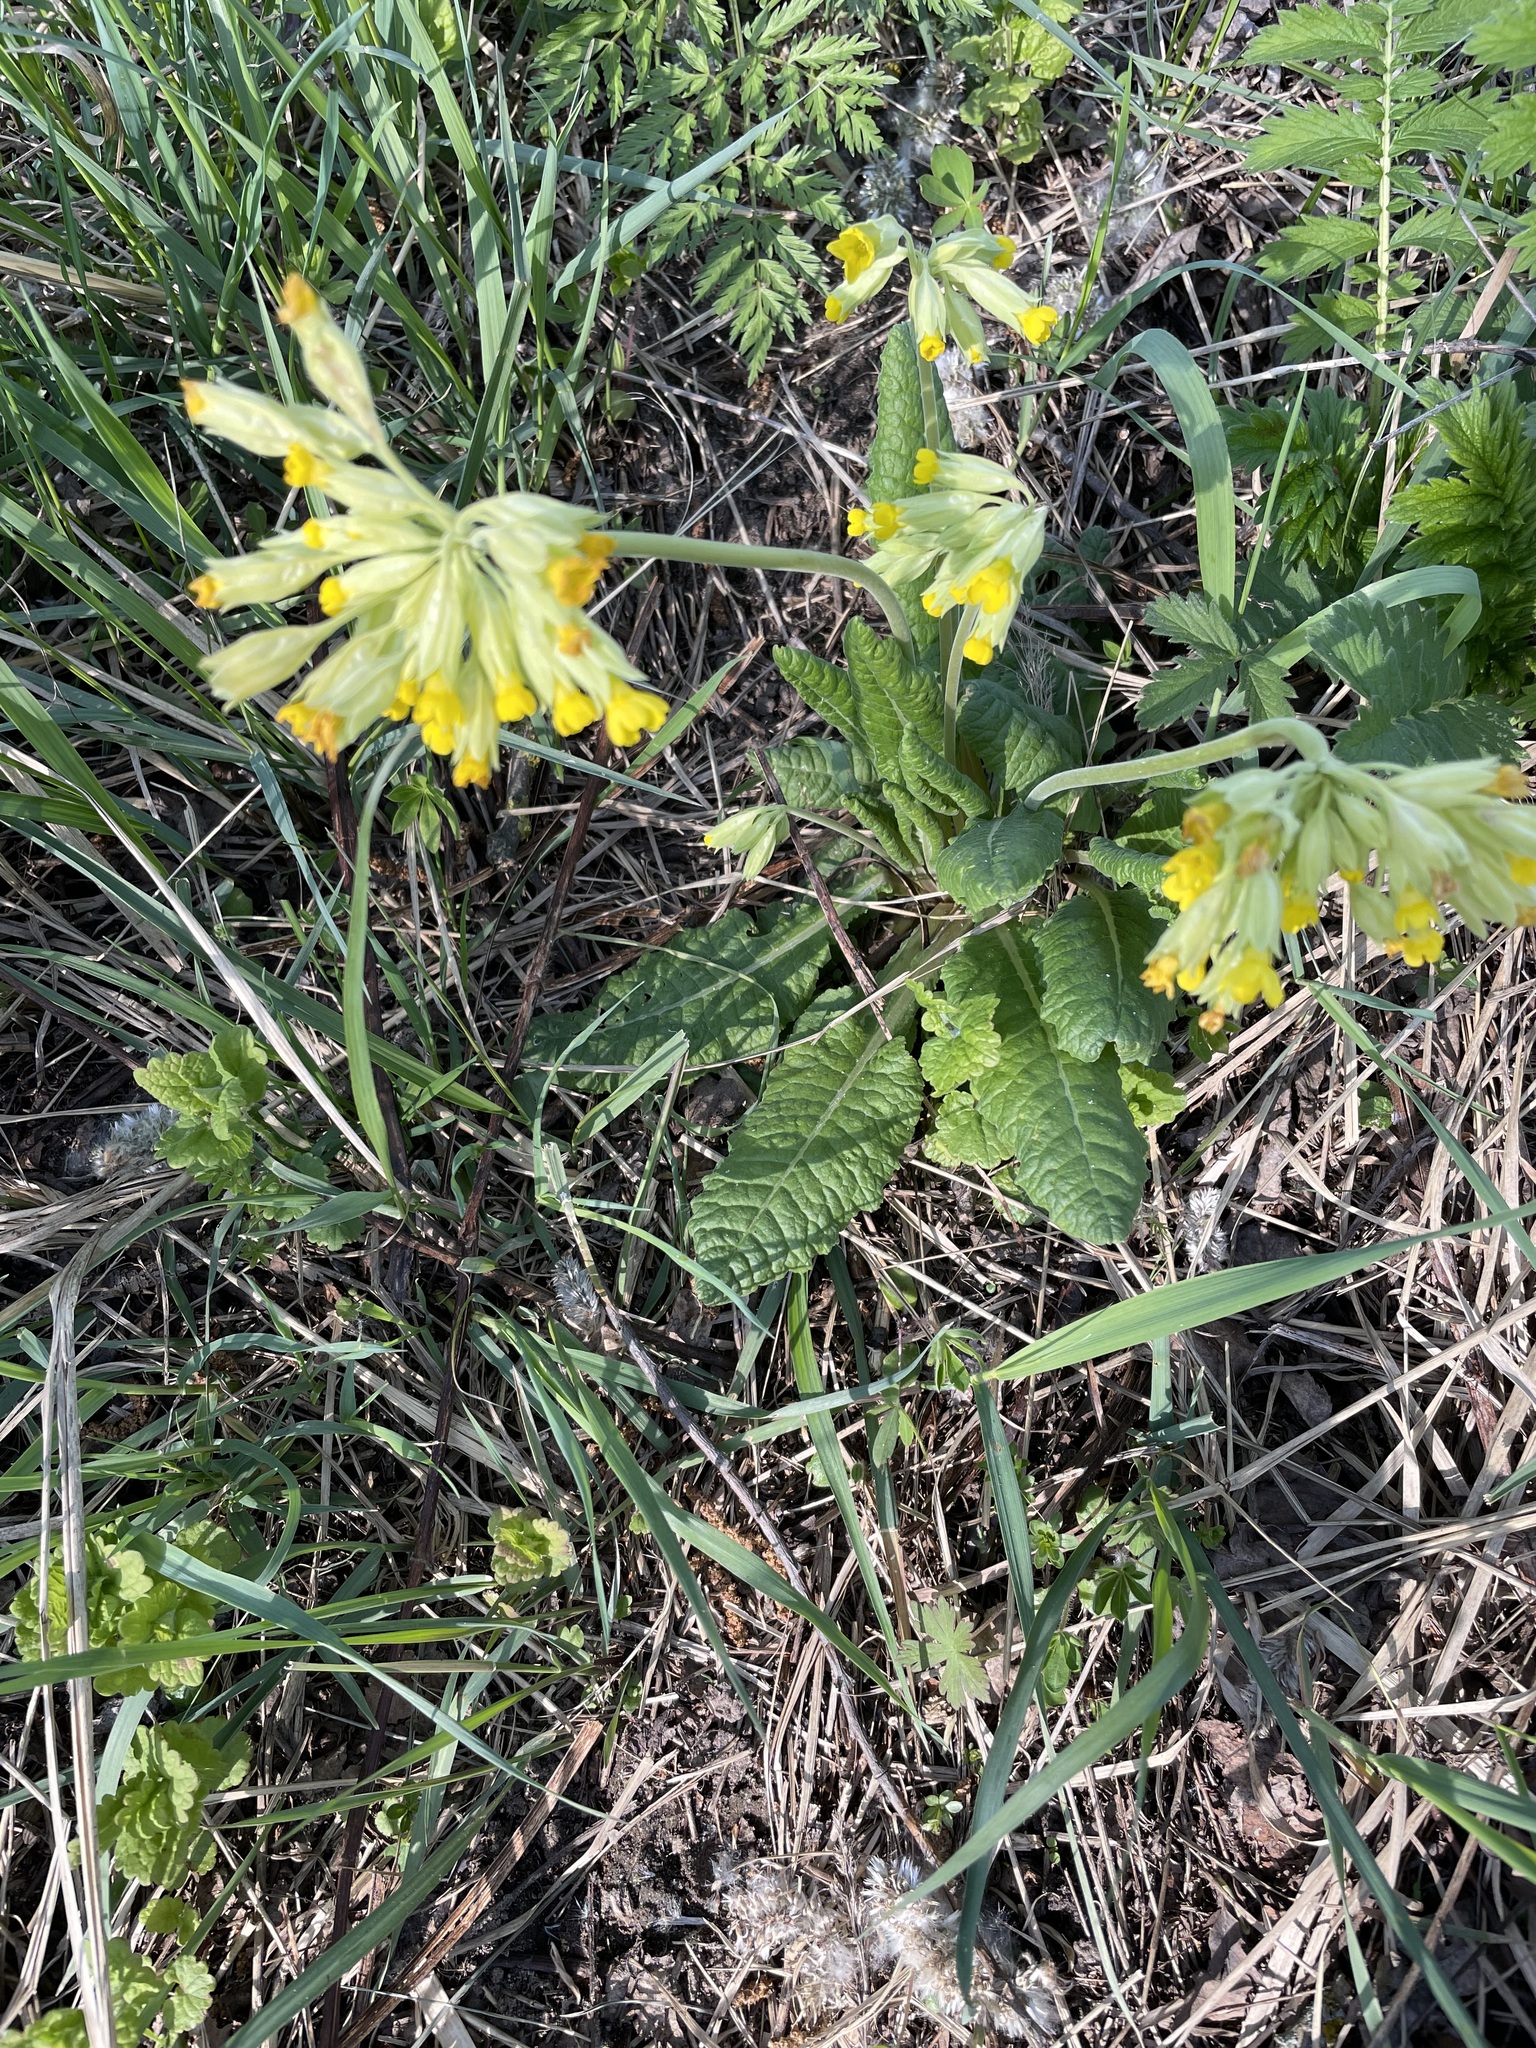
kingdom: Plantae
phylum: Tracheophyta
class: Magnoliopsida
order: Ericales
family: Primulaceae
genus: Primula
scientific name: Primula veris
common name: Cowslip
